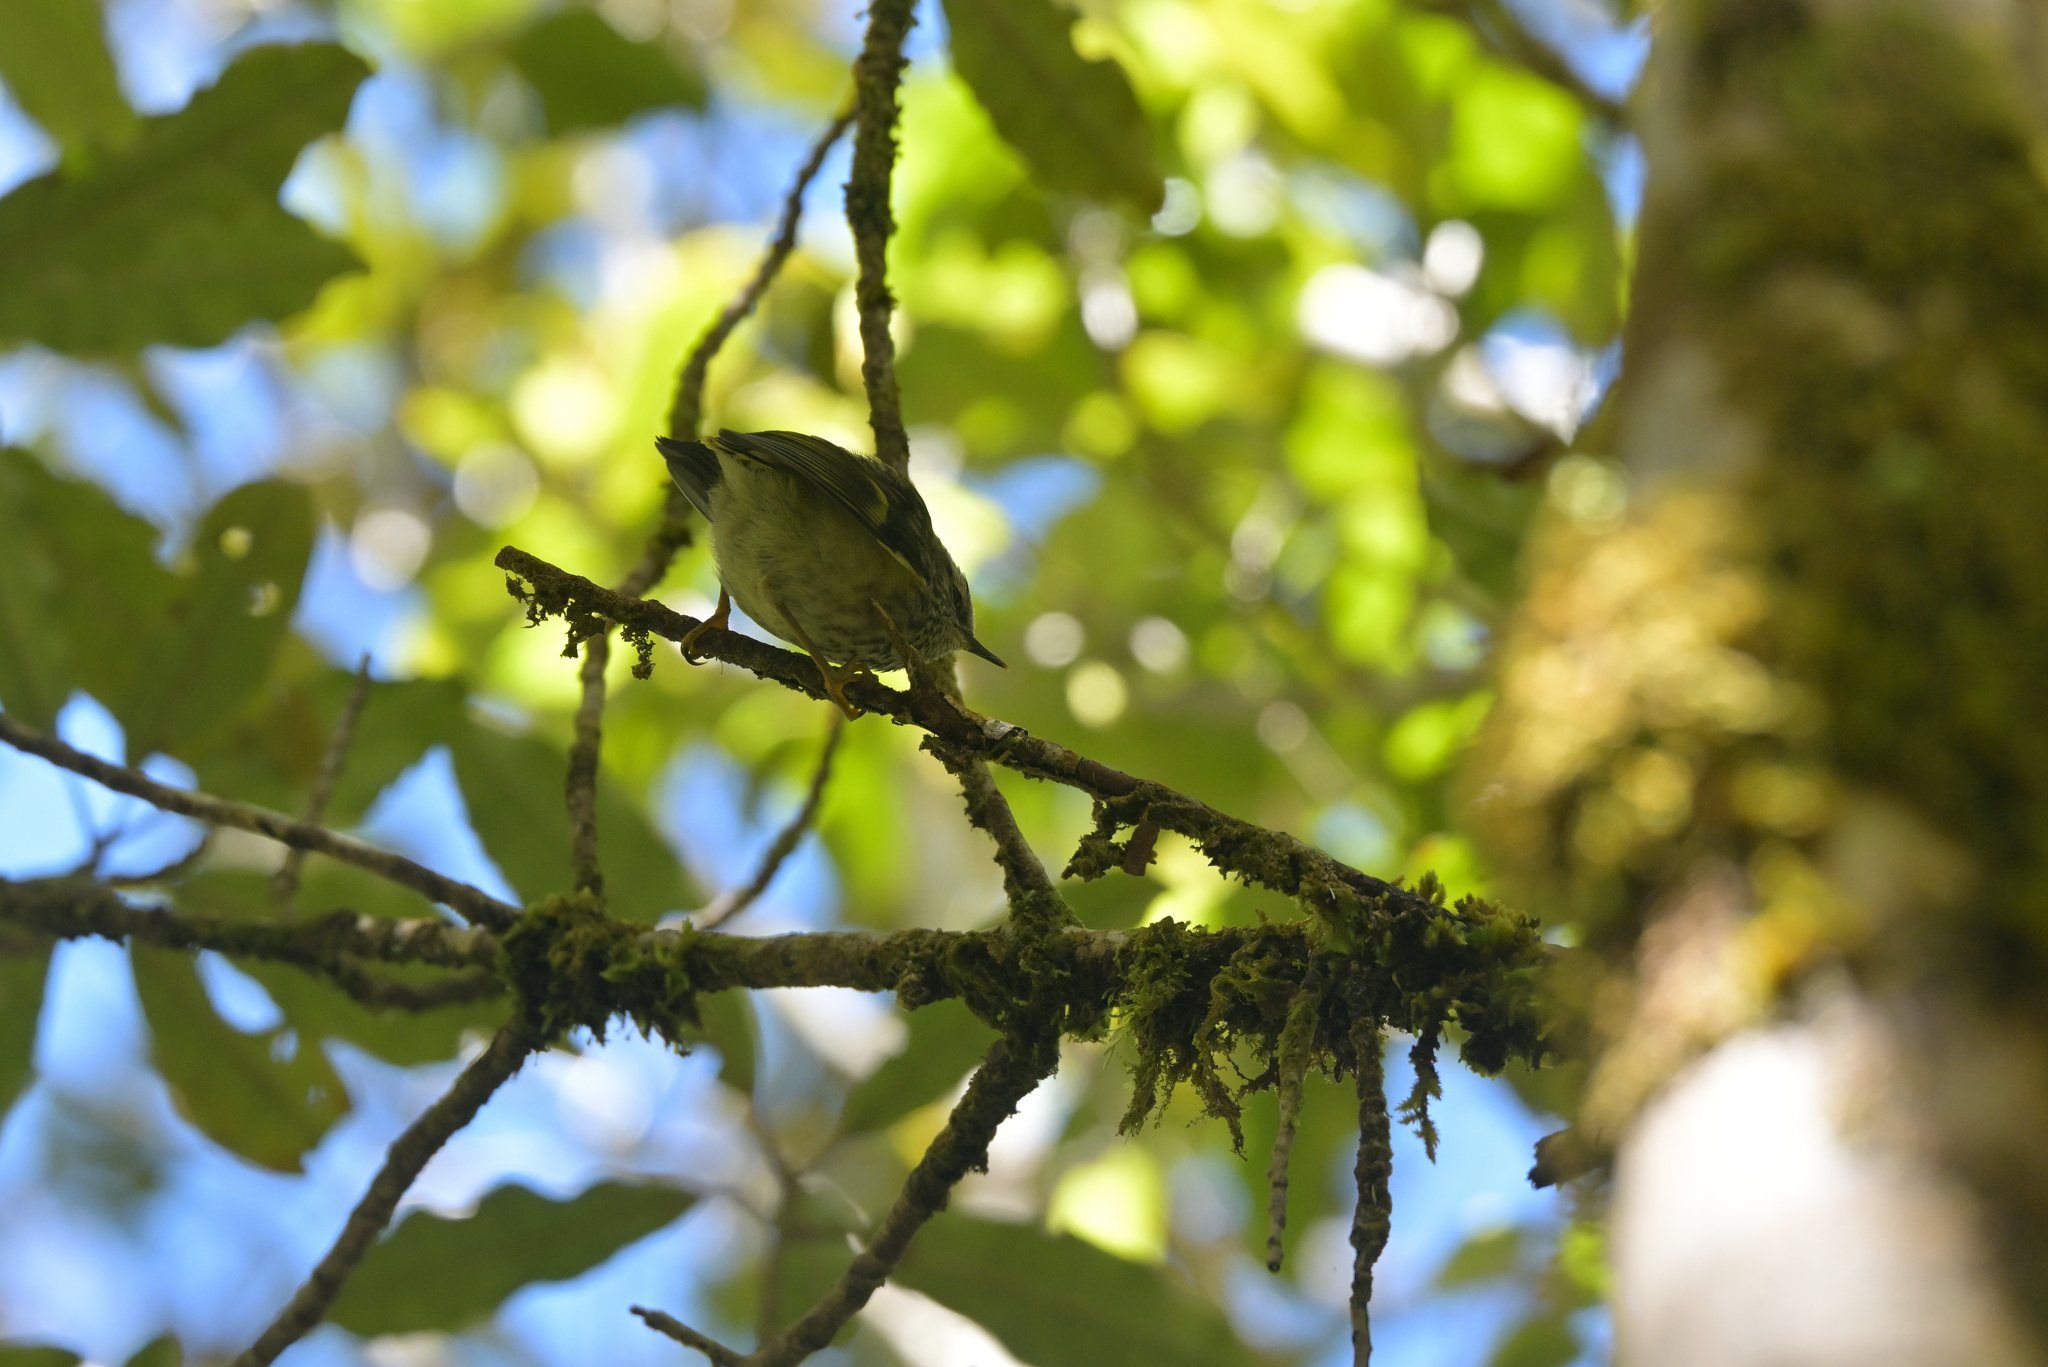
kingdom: Animalia
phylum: Chordata
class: Aves
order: Passeriformes
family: Acanthisittidae
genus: Acanthisitta
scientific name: Acanthisitta chloris
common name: Rifleman
